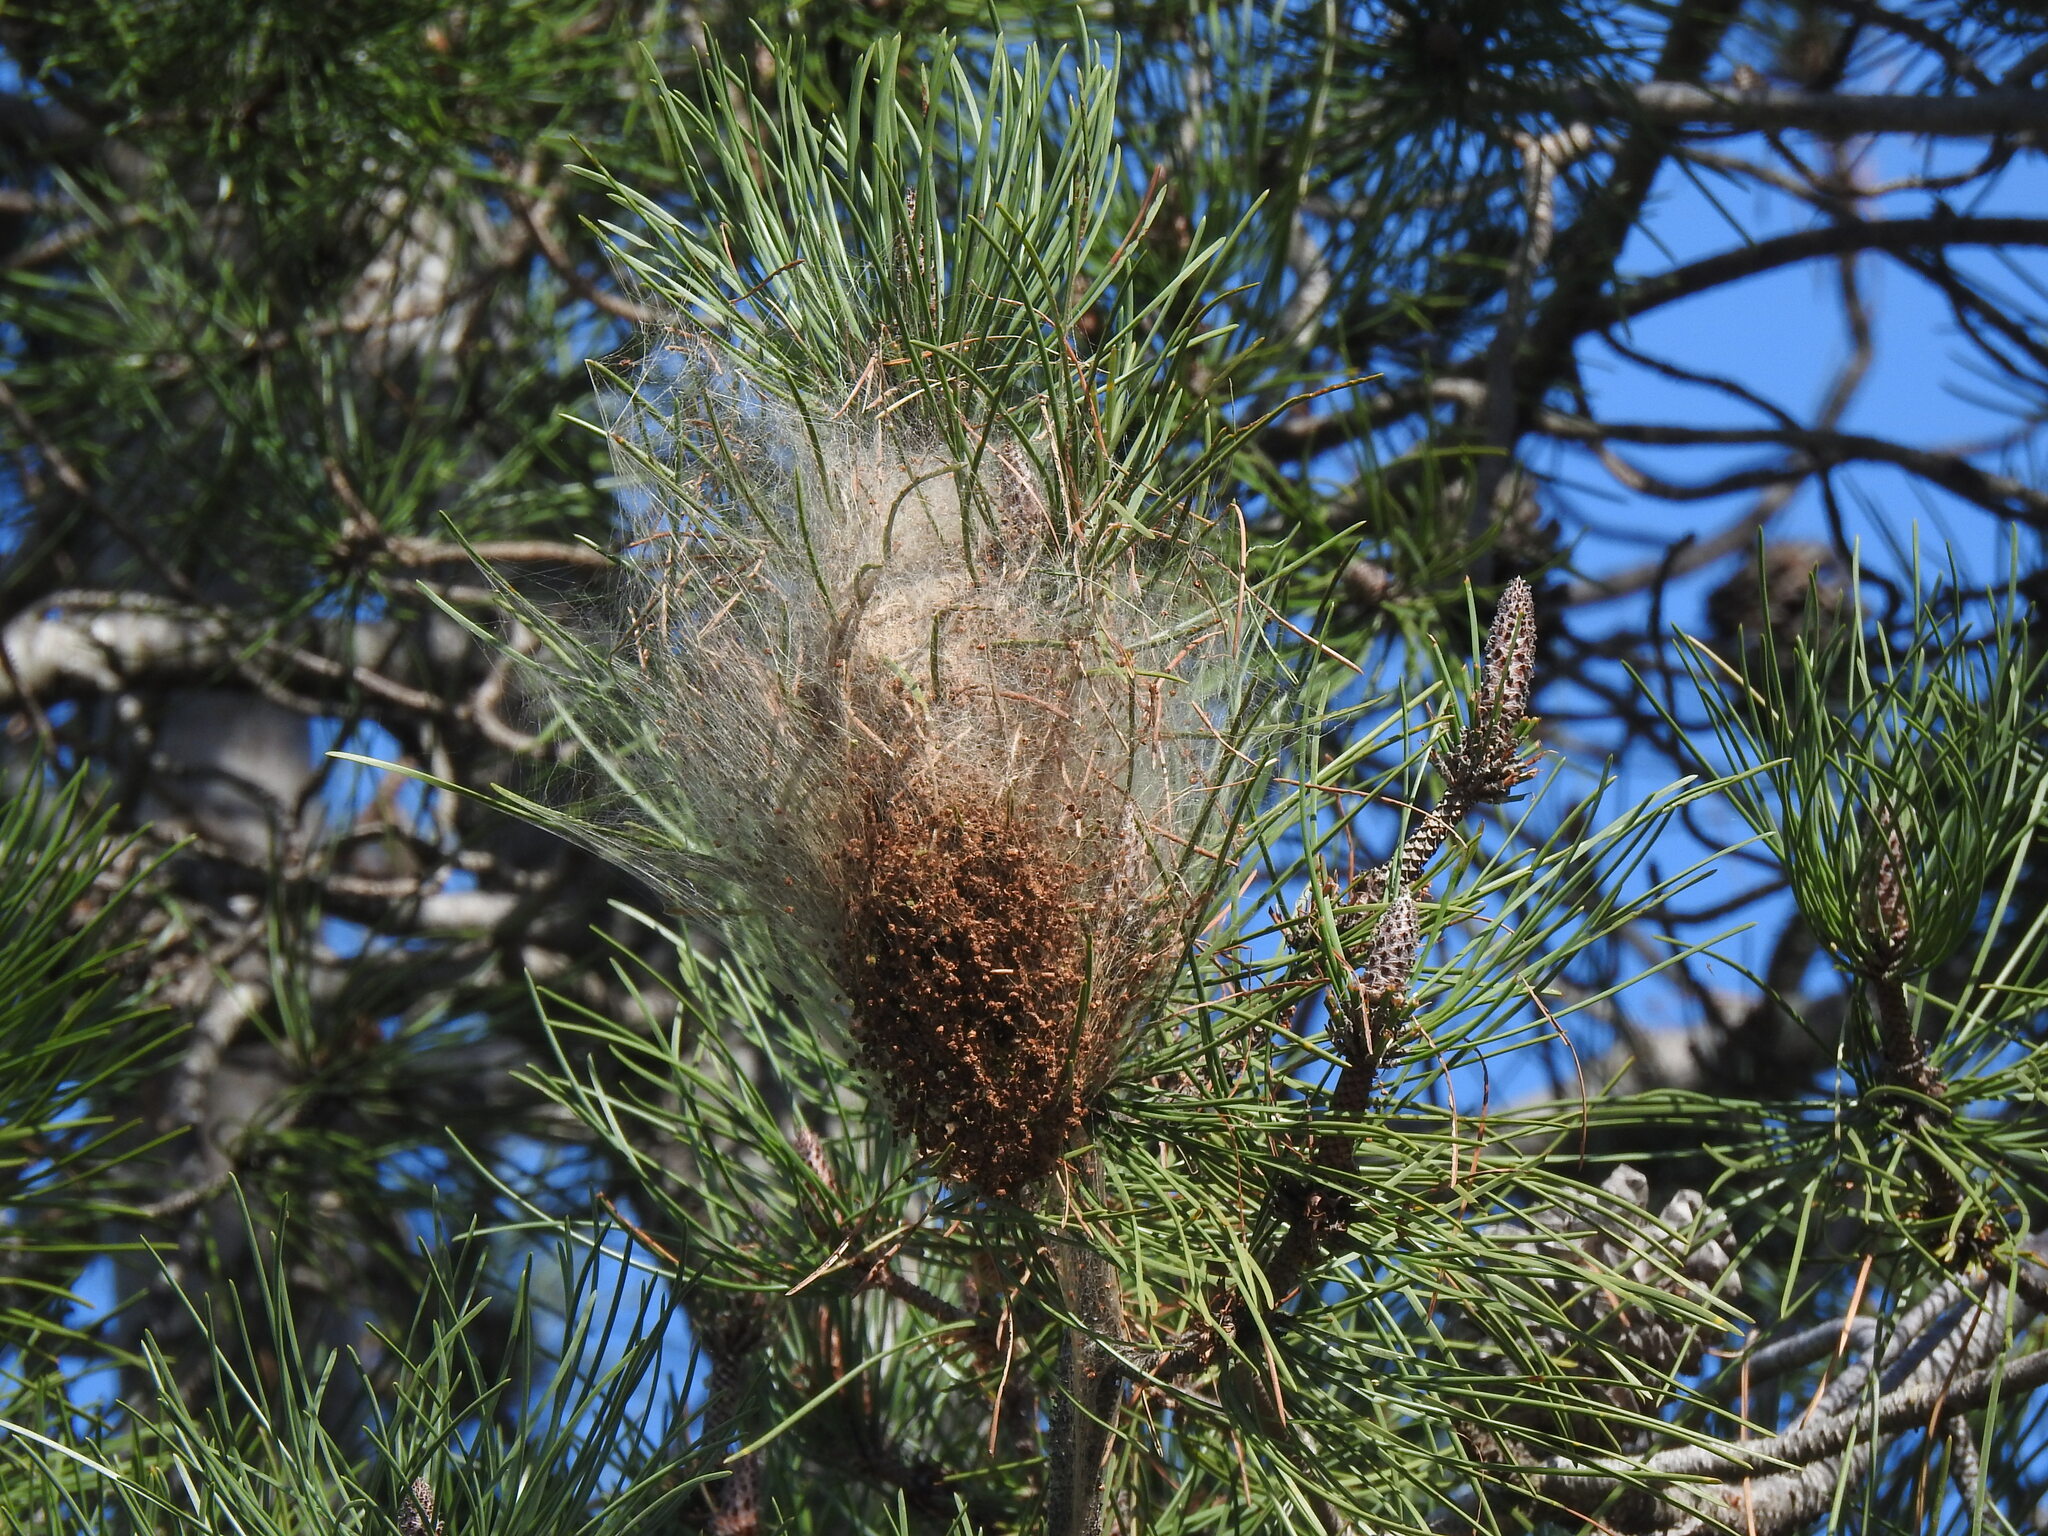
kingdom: Plantae
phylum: Tracheophyta
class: Pinopsida
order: Pinales
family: Pinaceae
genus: Pinus
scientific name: Pinus pinaster
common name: Maritime pine
